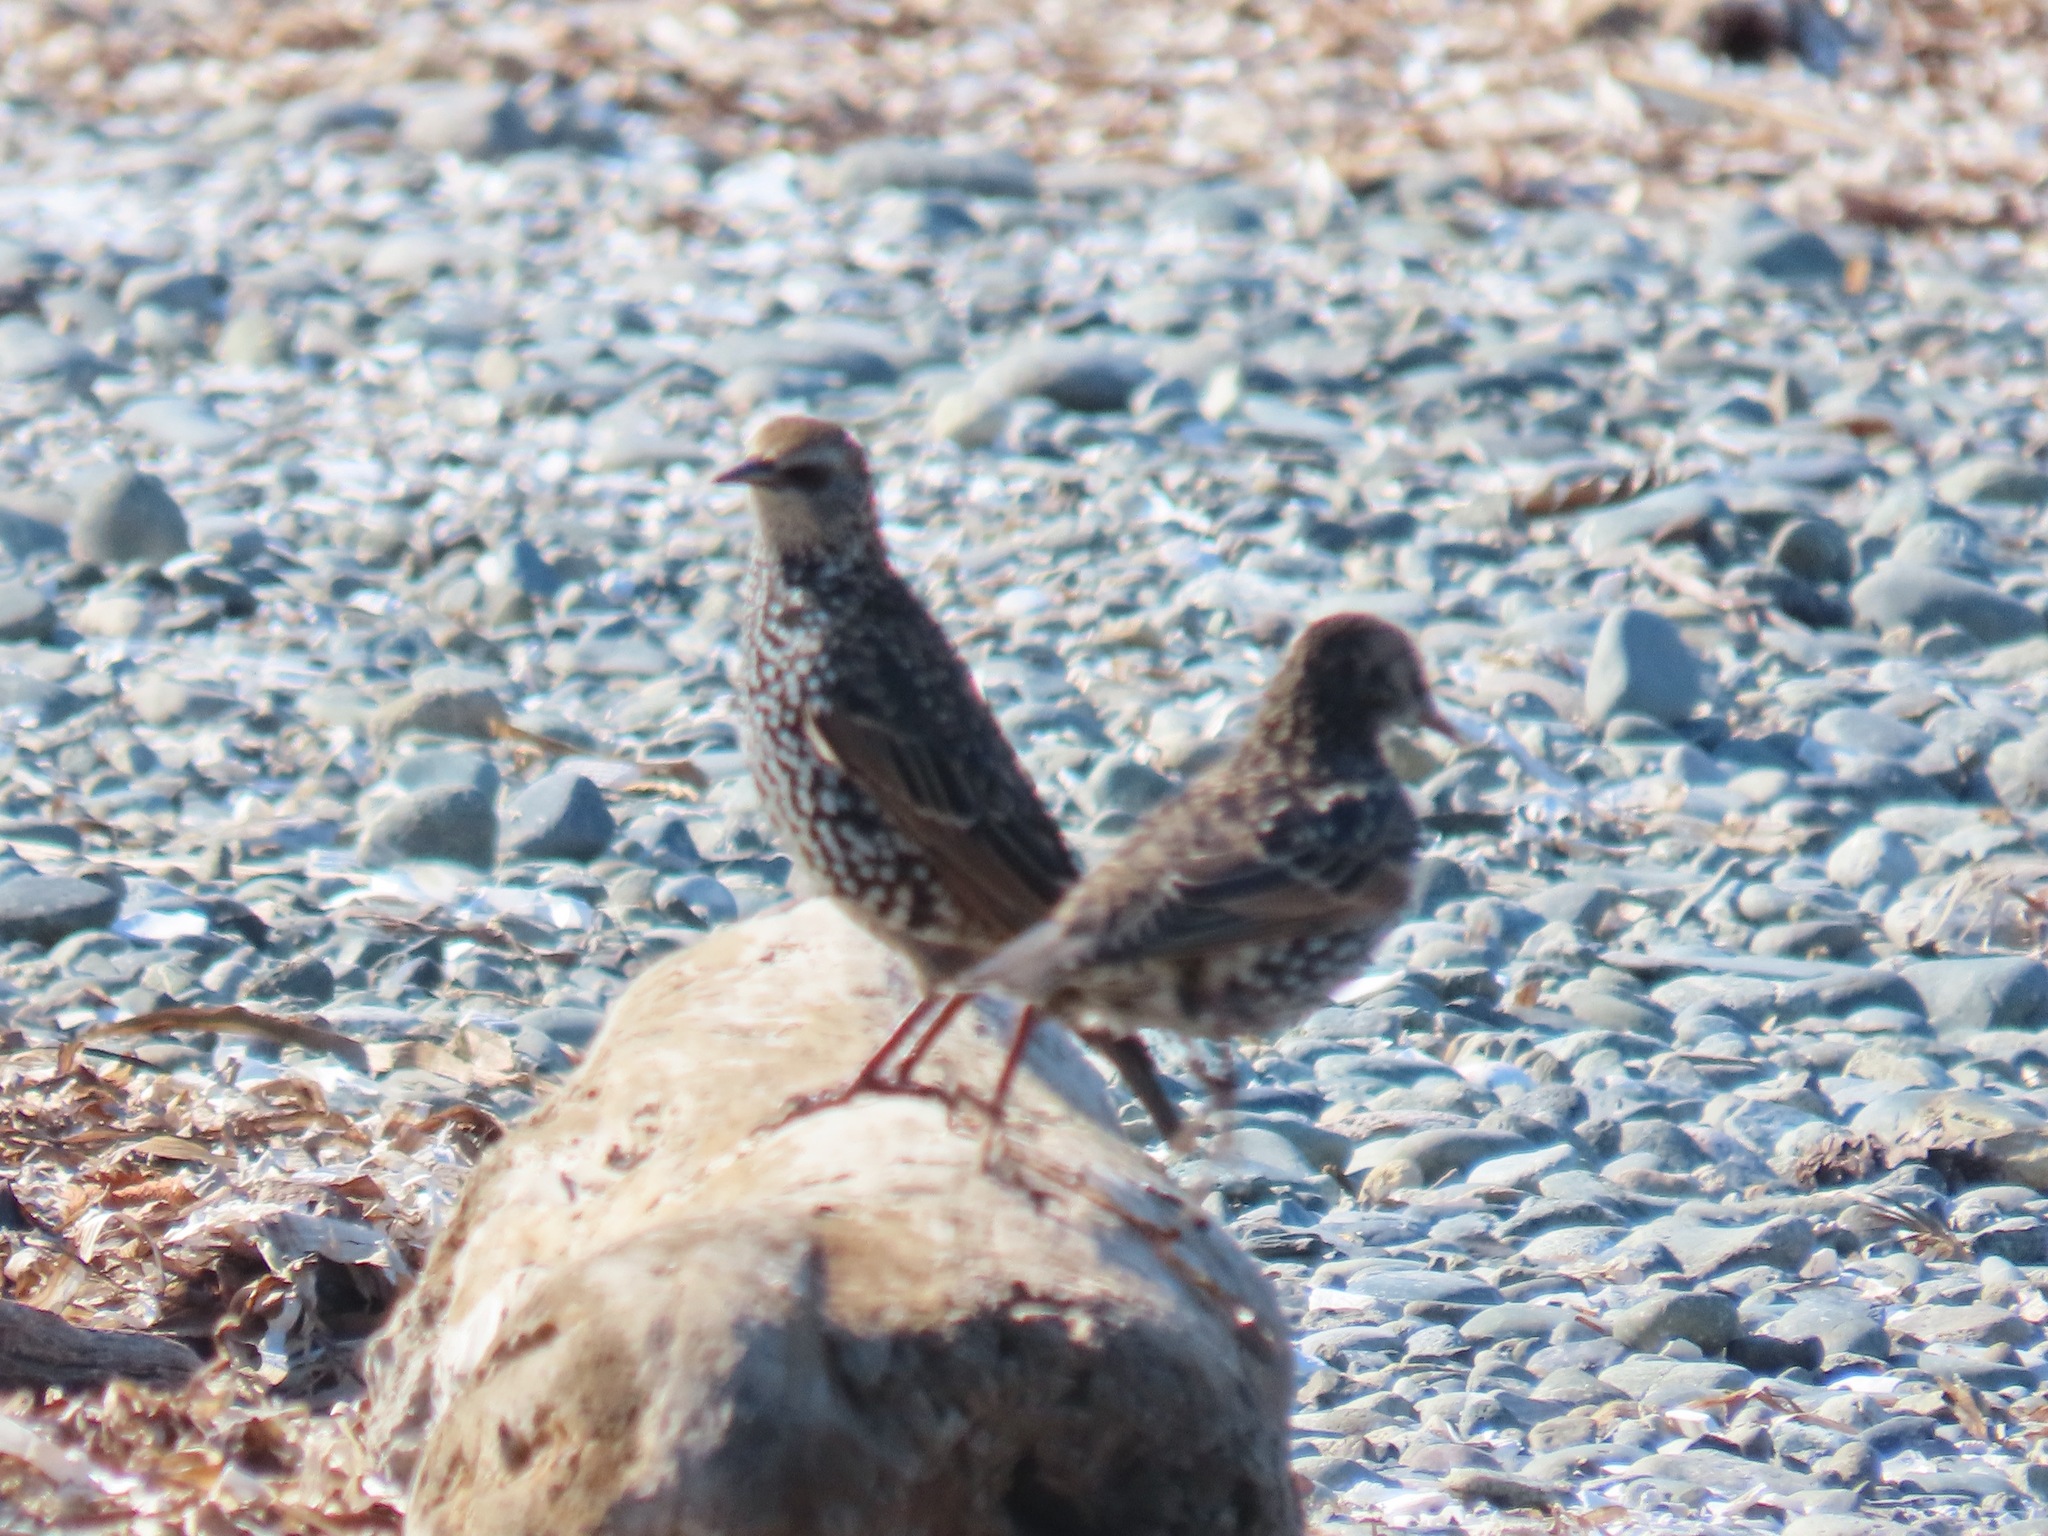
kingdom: Animalia
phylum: Chordata
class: Aves
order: Passeriformes
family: Sturnidae
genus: Sturnus
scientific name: Sturnus vulgaris
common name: Common starling
